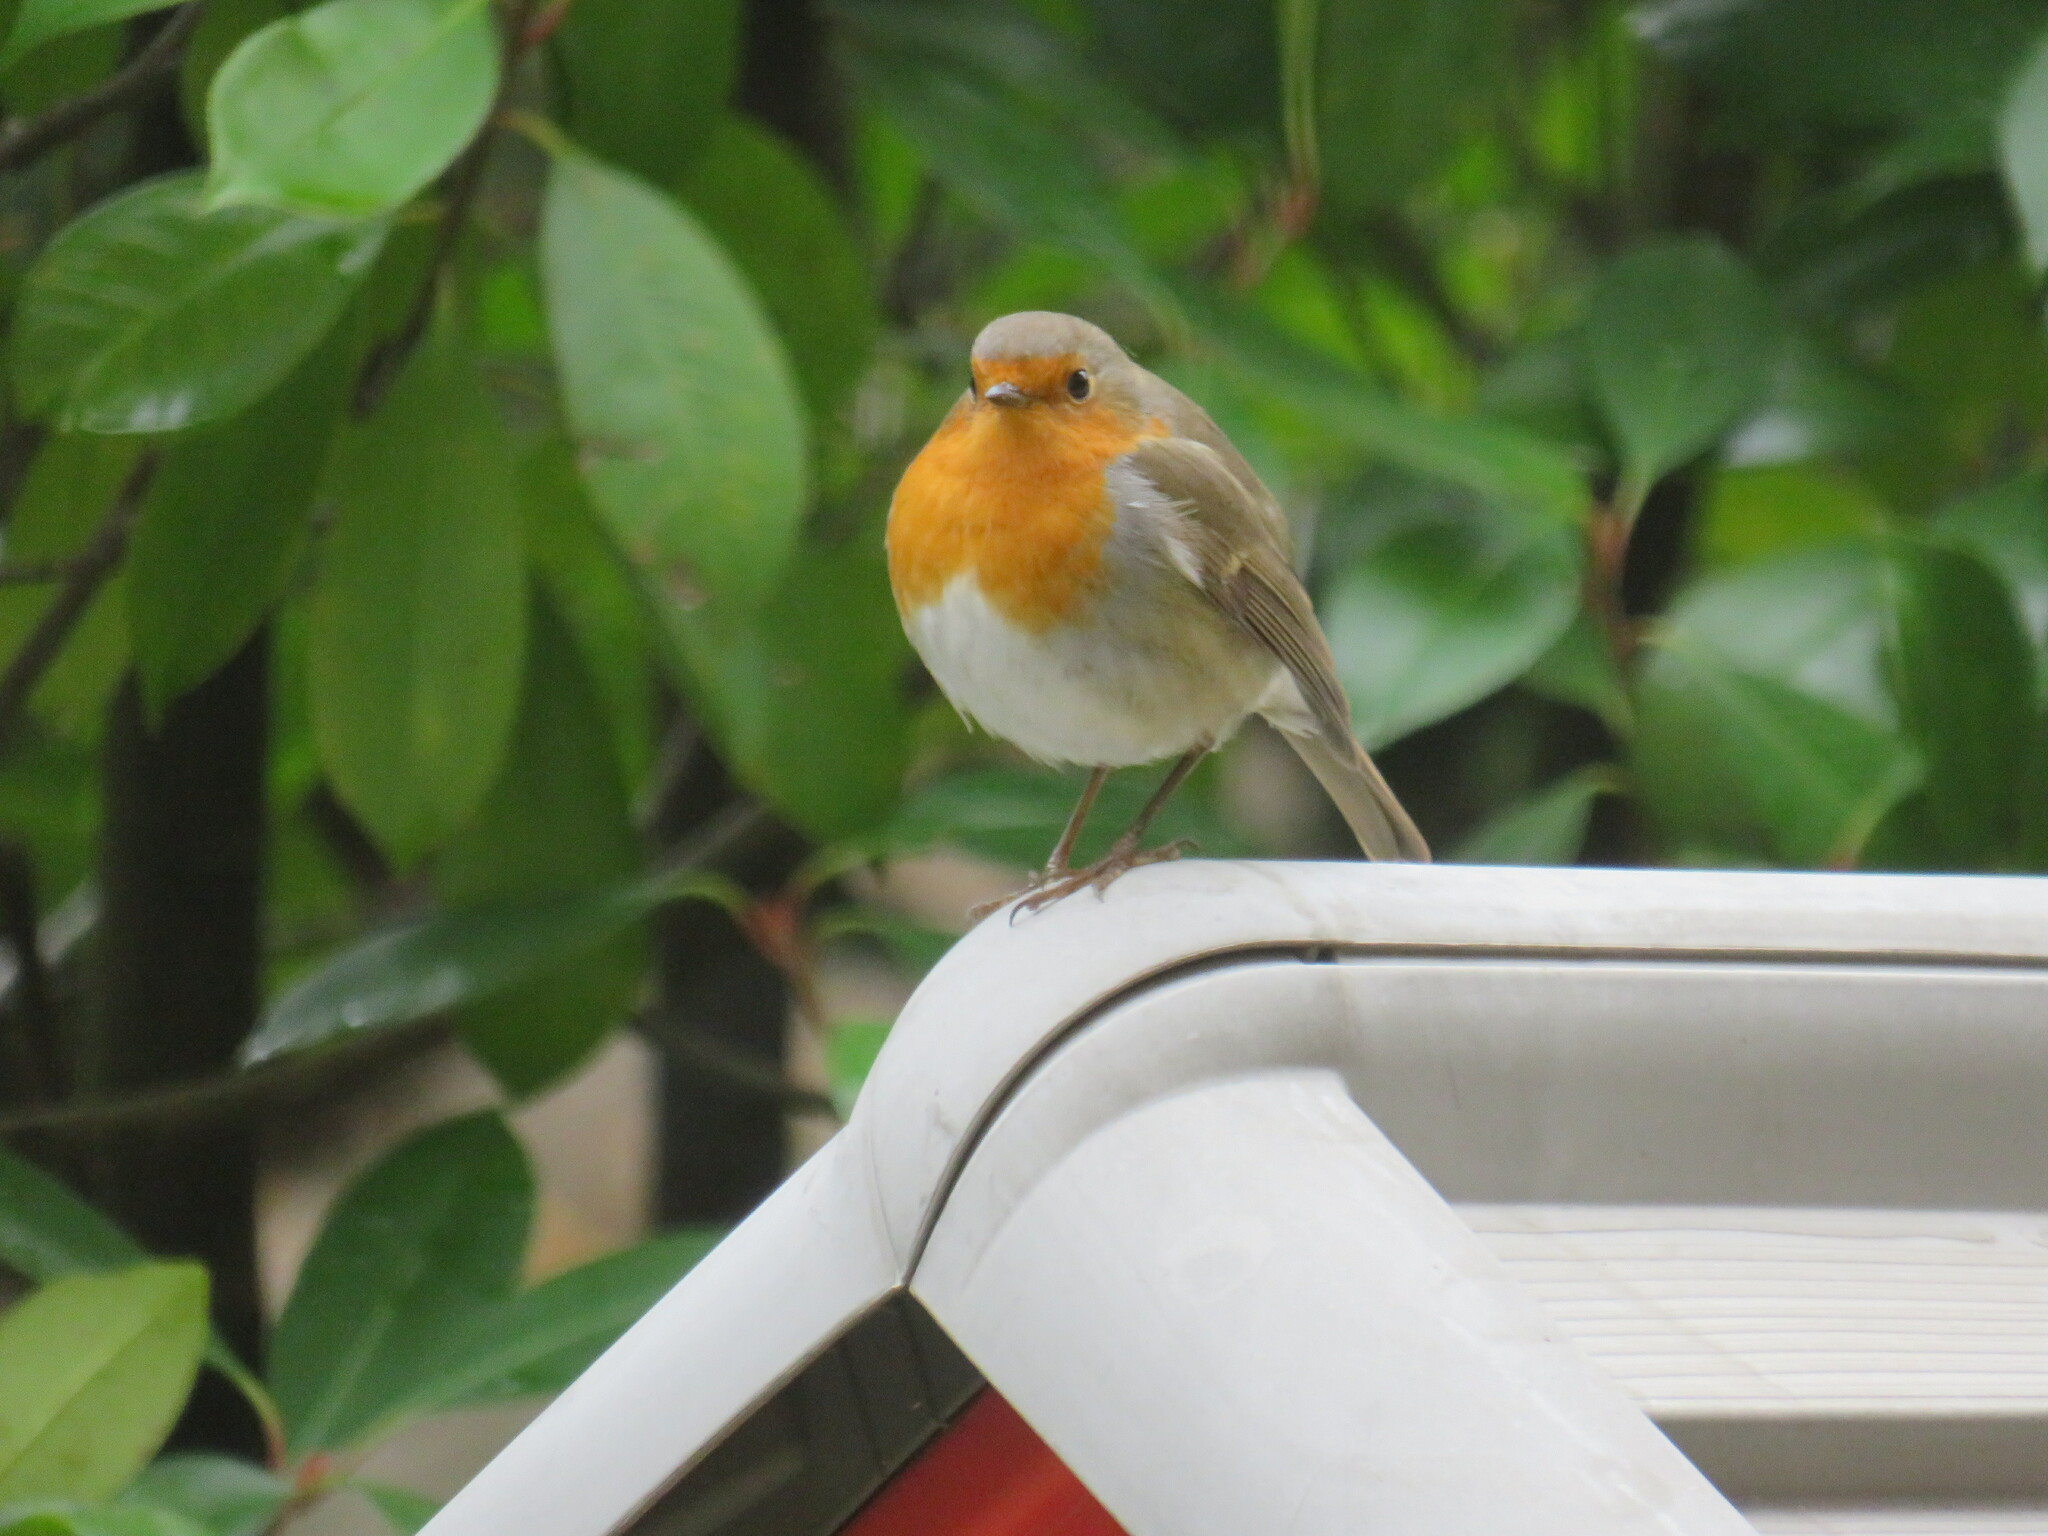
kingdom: Animalia
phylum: Chordata
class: Aves
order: Passeriformes
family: Muscicapidae
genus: Erithacus
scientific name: Erithacus rubecula
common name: European robin
